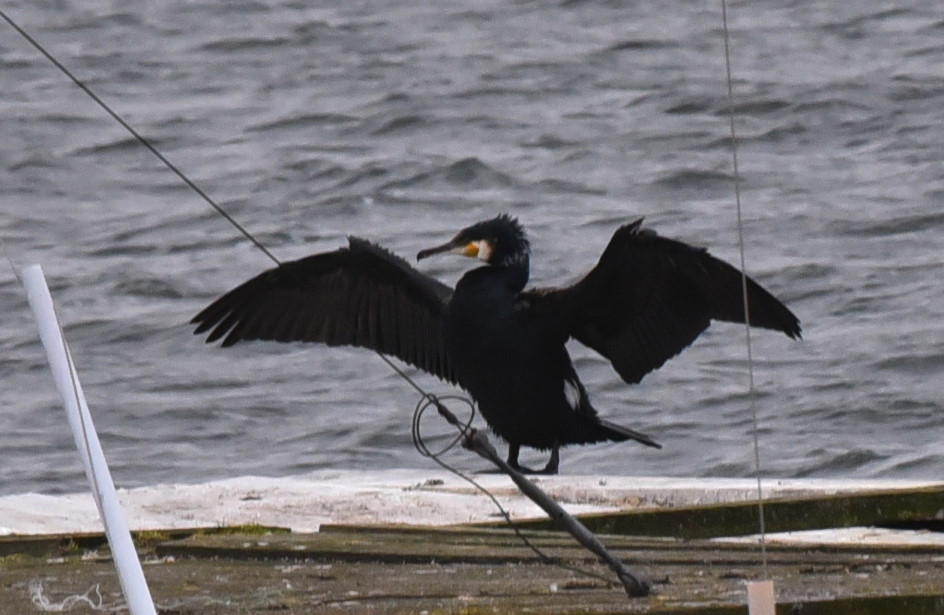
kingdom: Animalia
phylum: Chordata
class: Aves
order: Suliformes
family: Phalacrocoracidae
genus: Phalacrocorax
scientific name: Phalacrocorax carbo
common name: Great cormorant
